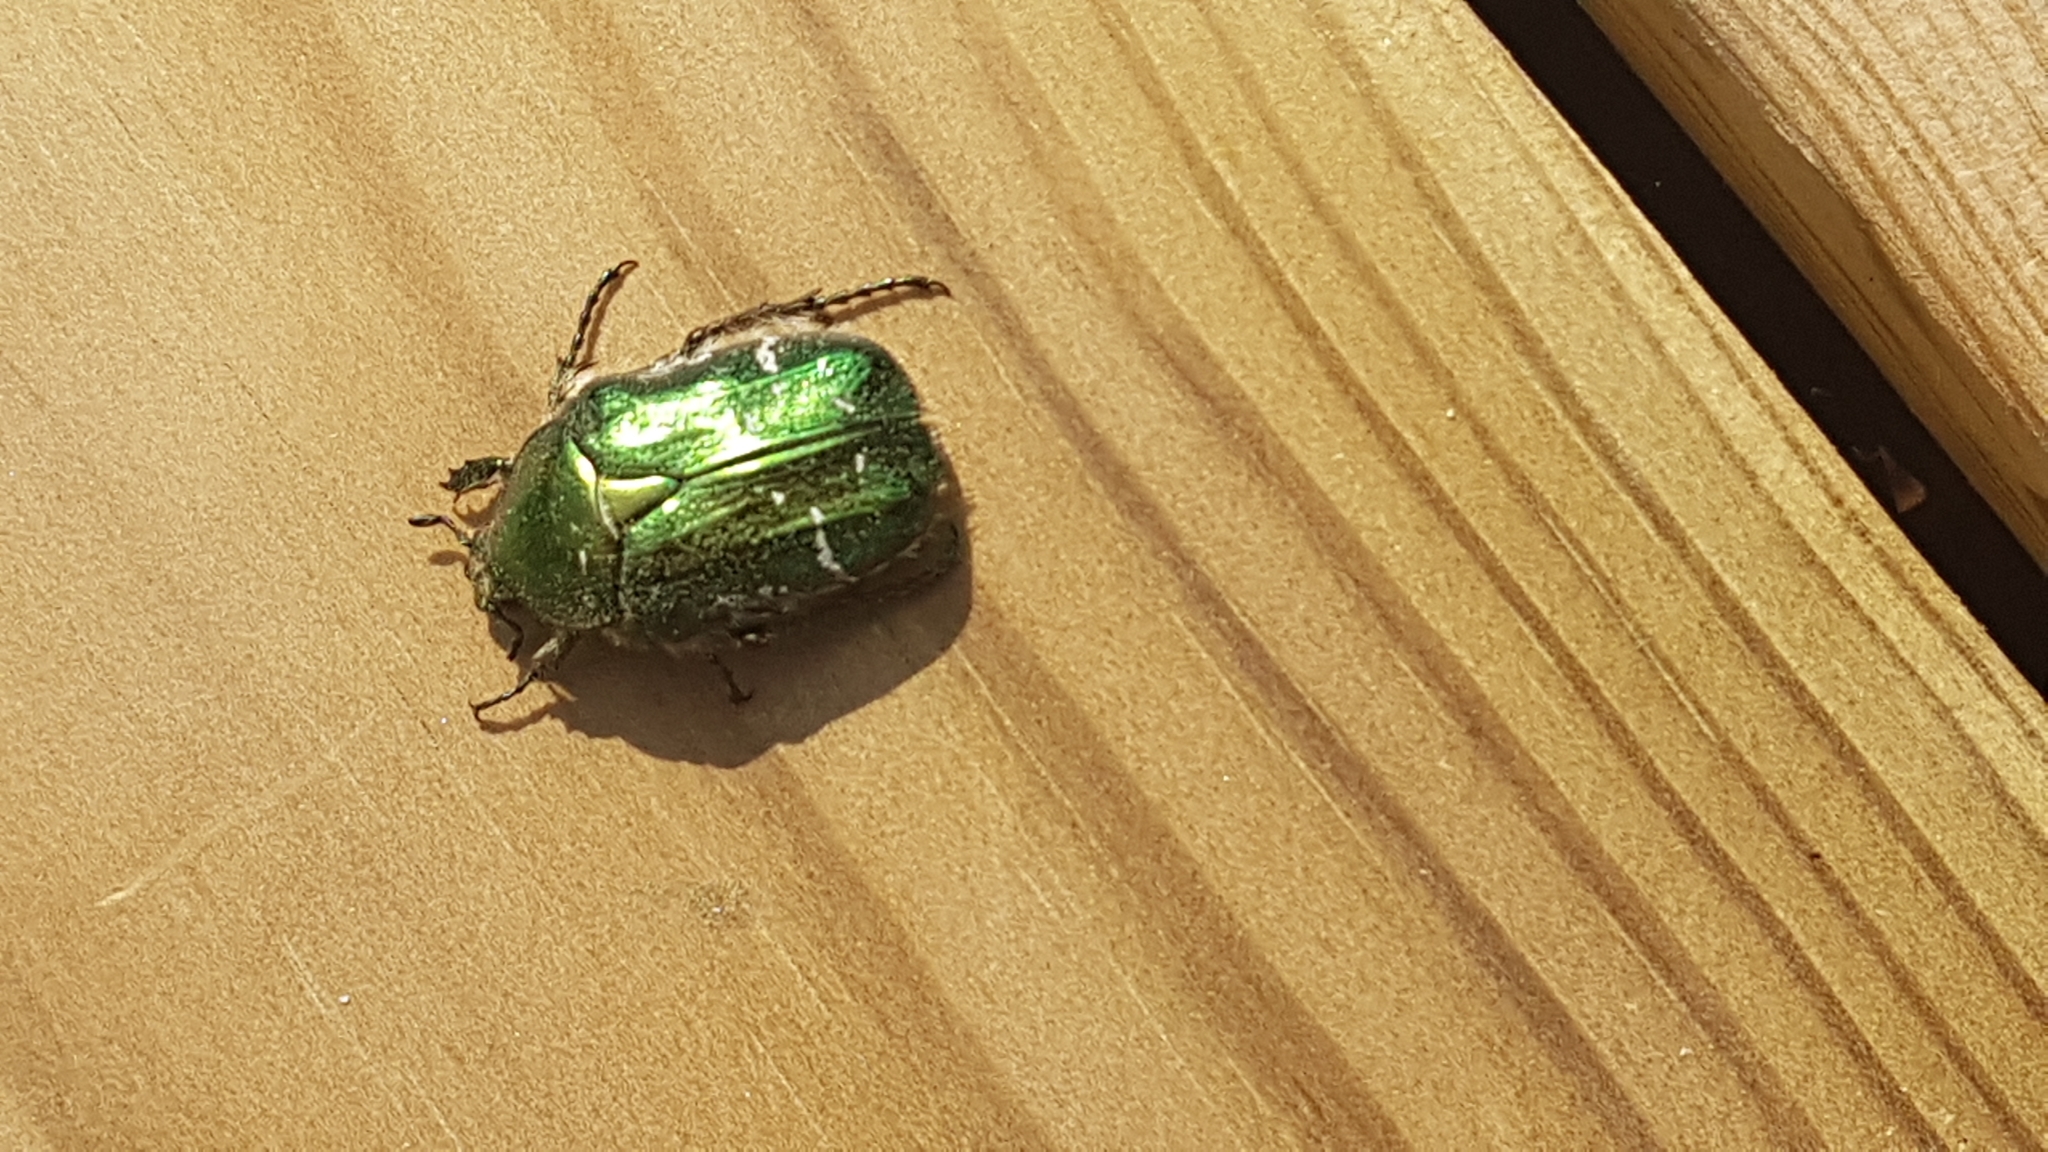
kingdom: Animalia
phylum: Arthropoda
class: Insecta
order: Coleoptera
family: Scarabaeidae
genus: Cetonia
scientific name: Cetonia aurata
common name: Rose chafer
